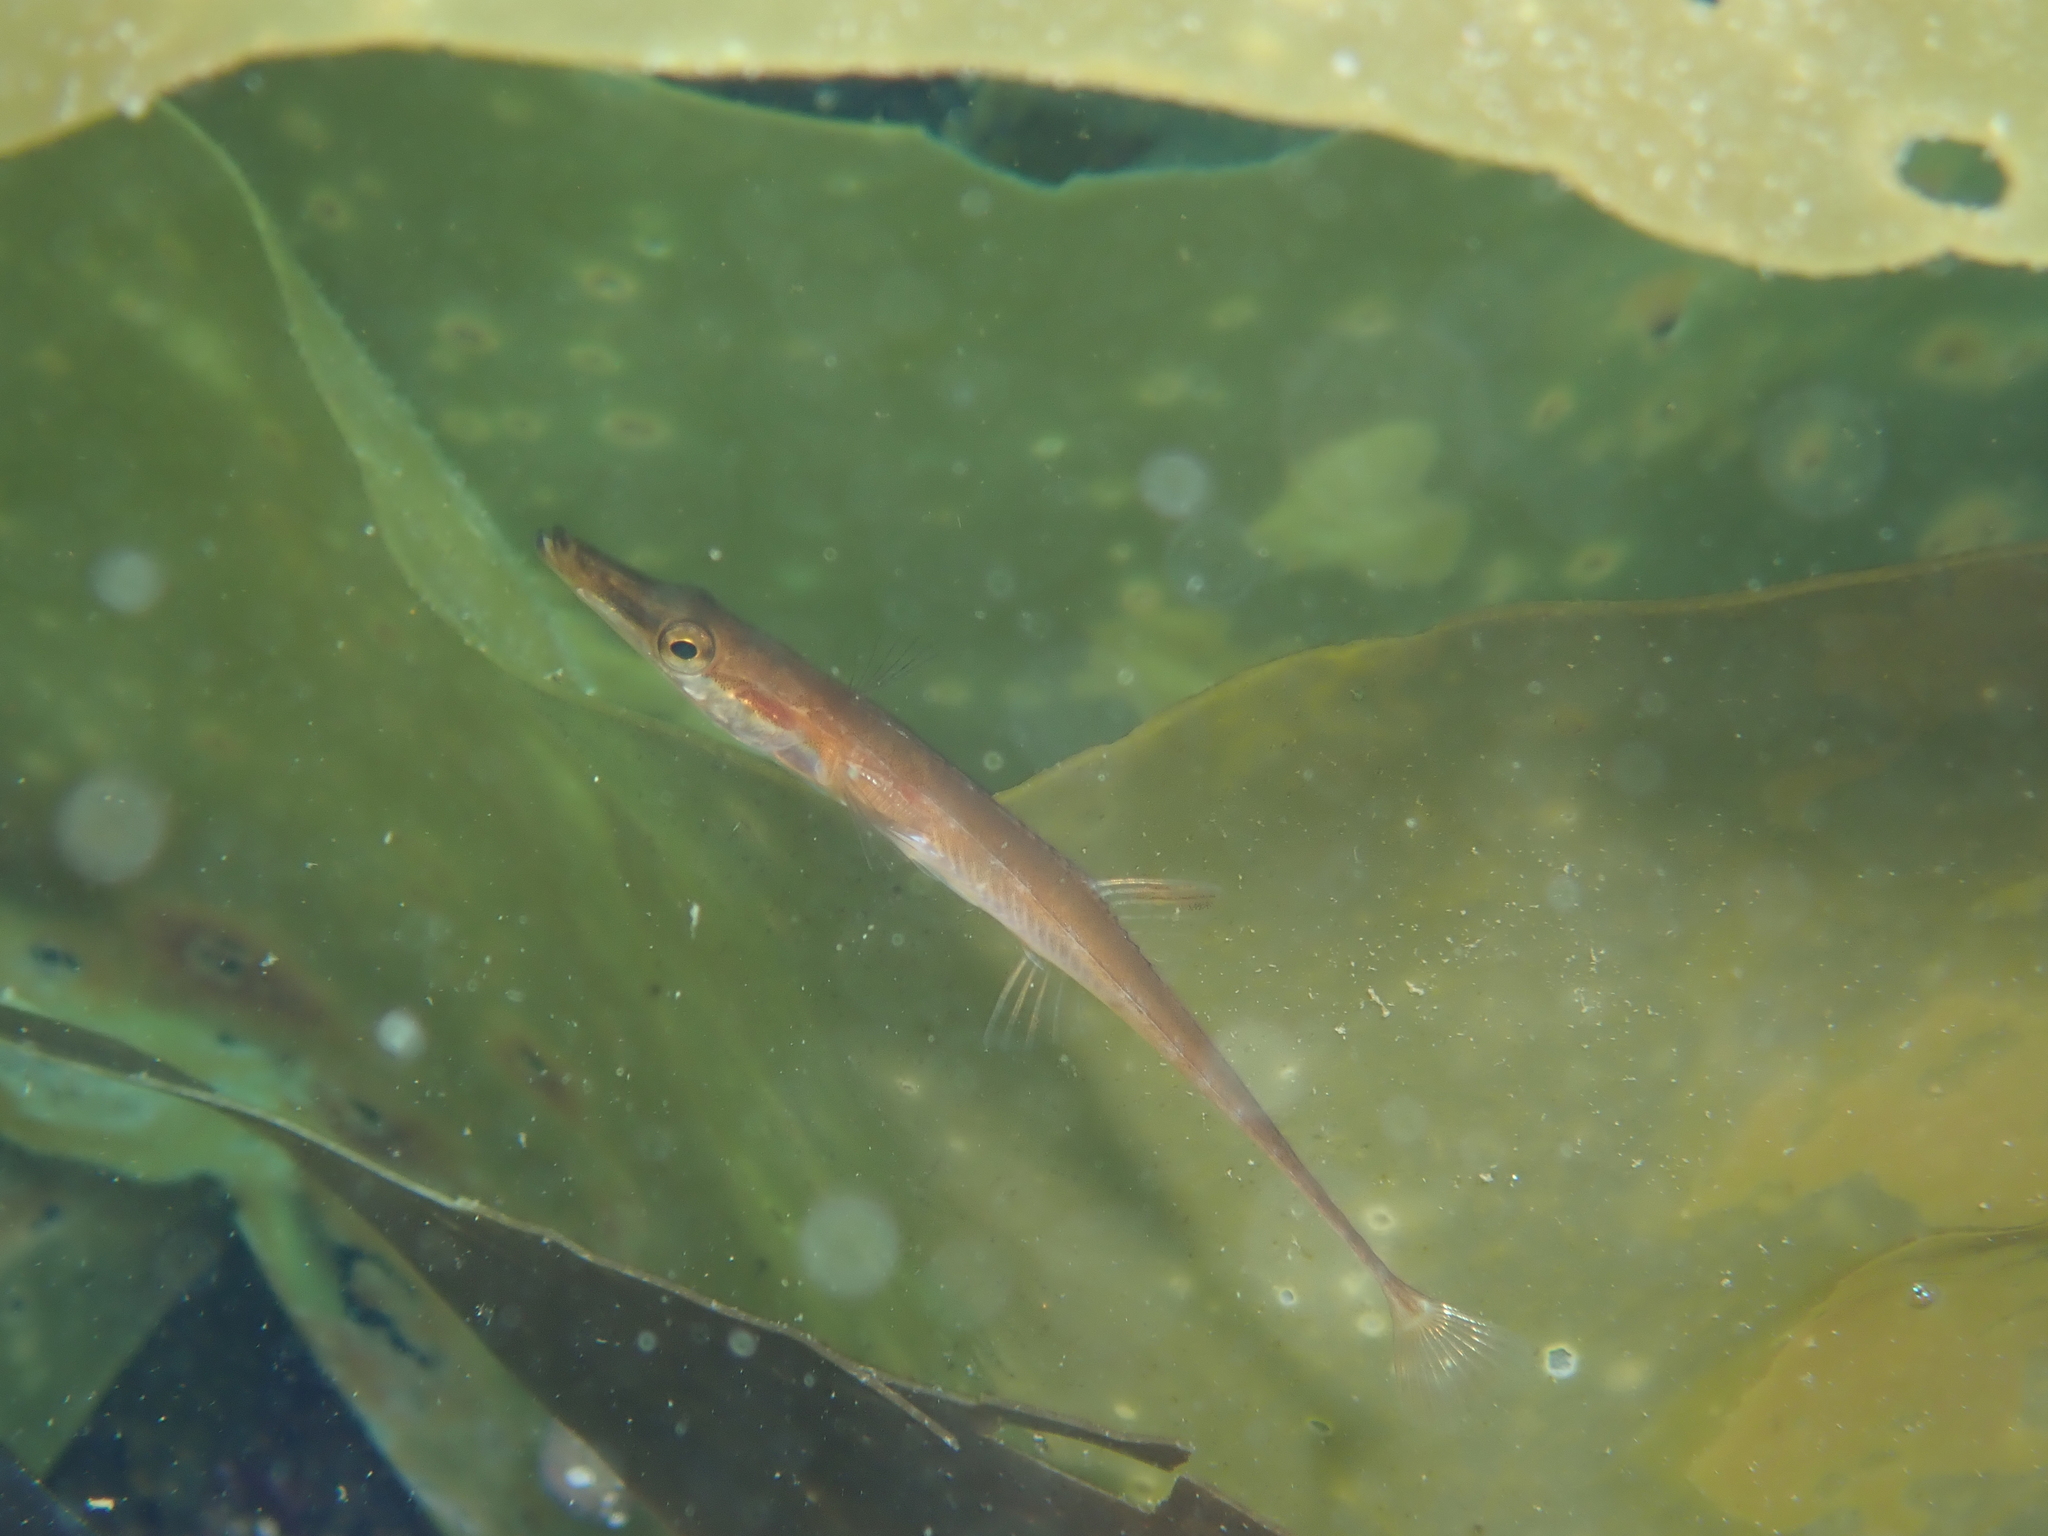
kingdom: Animalia
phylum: Chordata
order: Gasterosteiformes
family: Gasterosteidae
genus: Spinachia
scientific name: Spinachia spinachia
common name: Fifteen-spined stickleback
